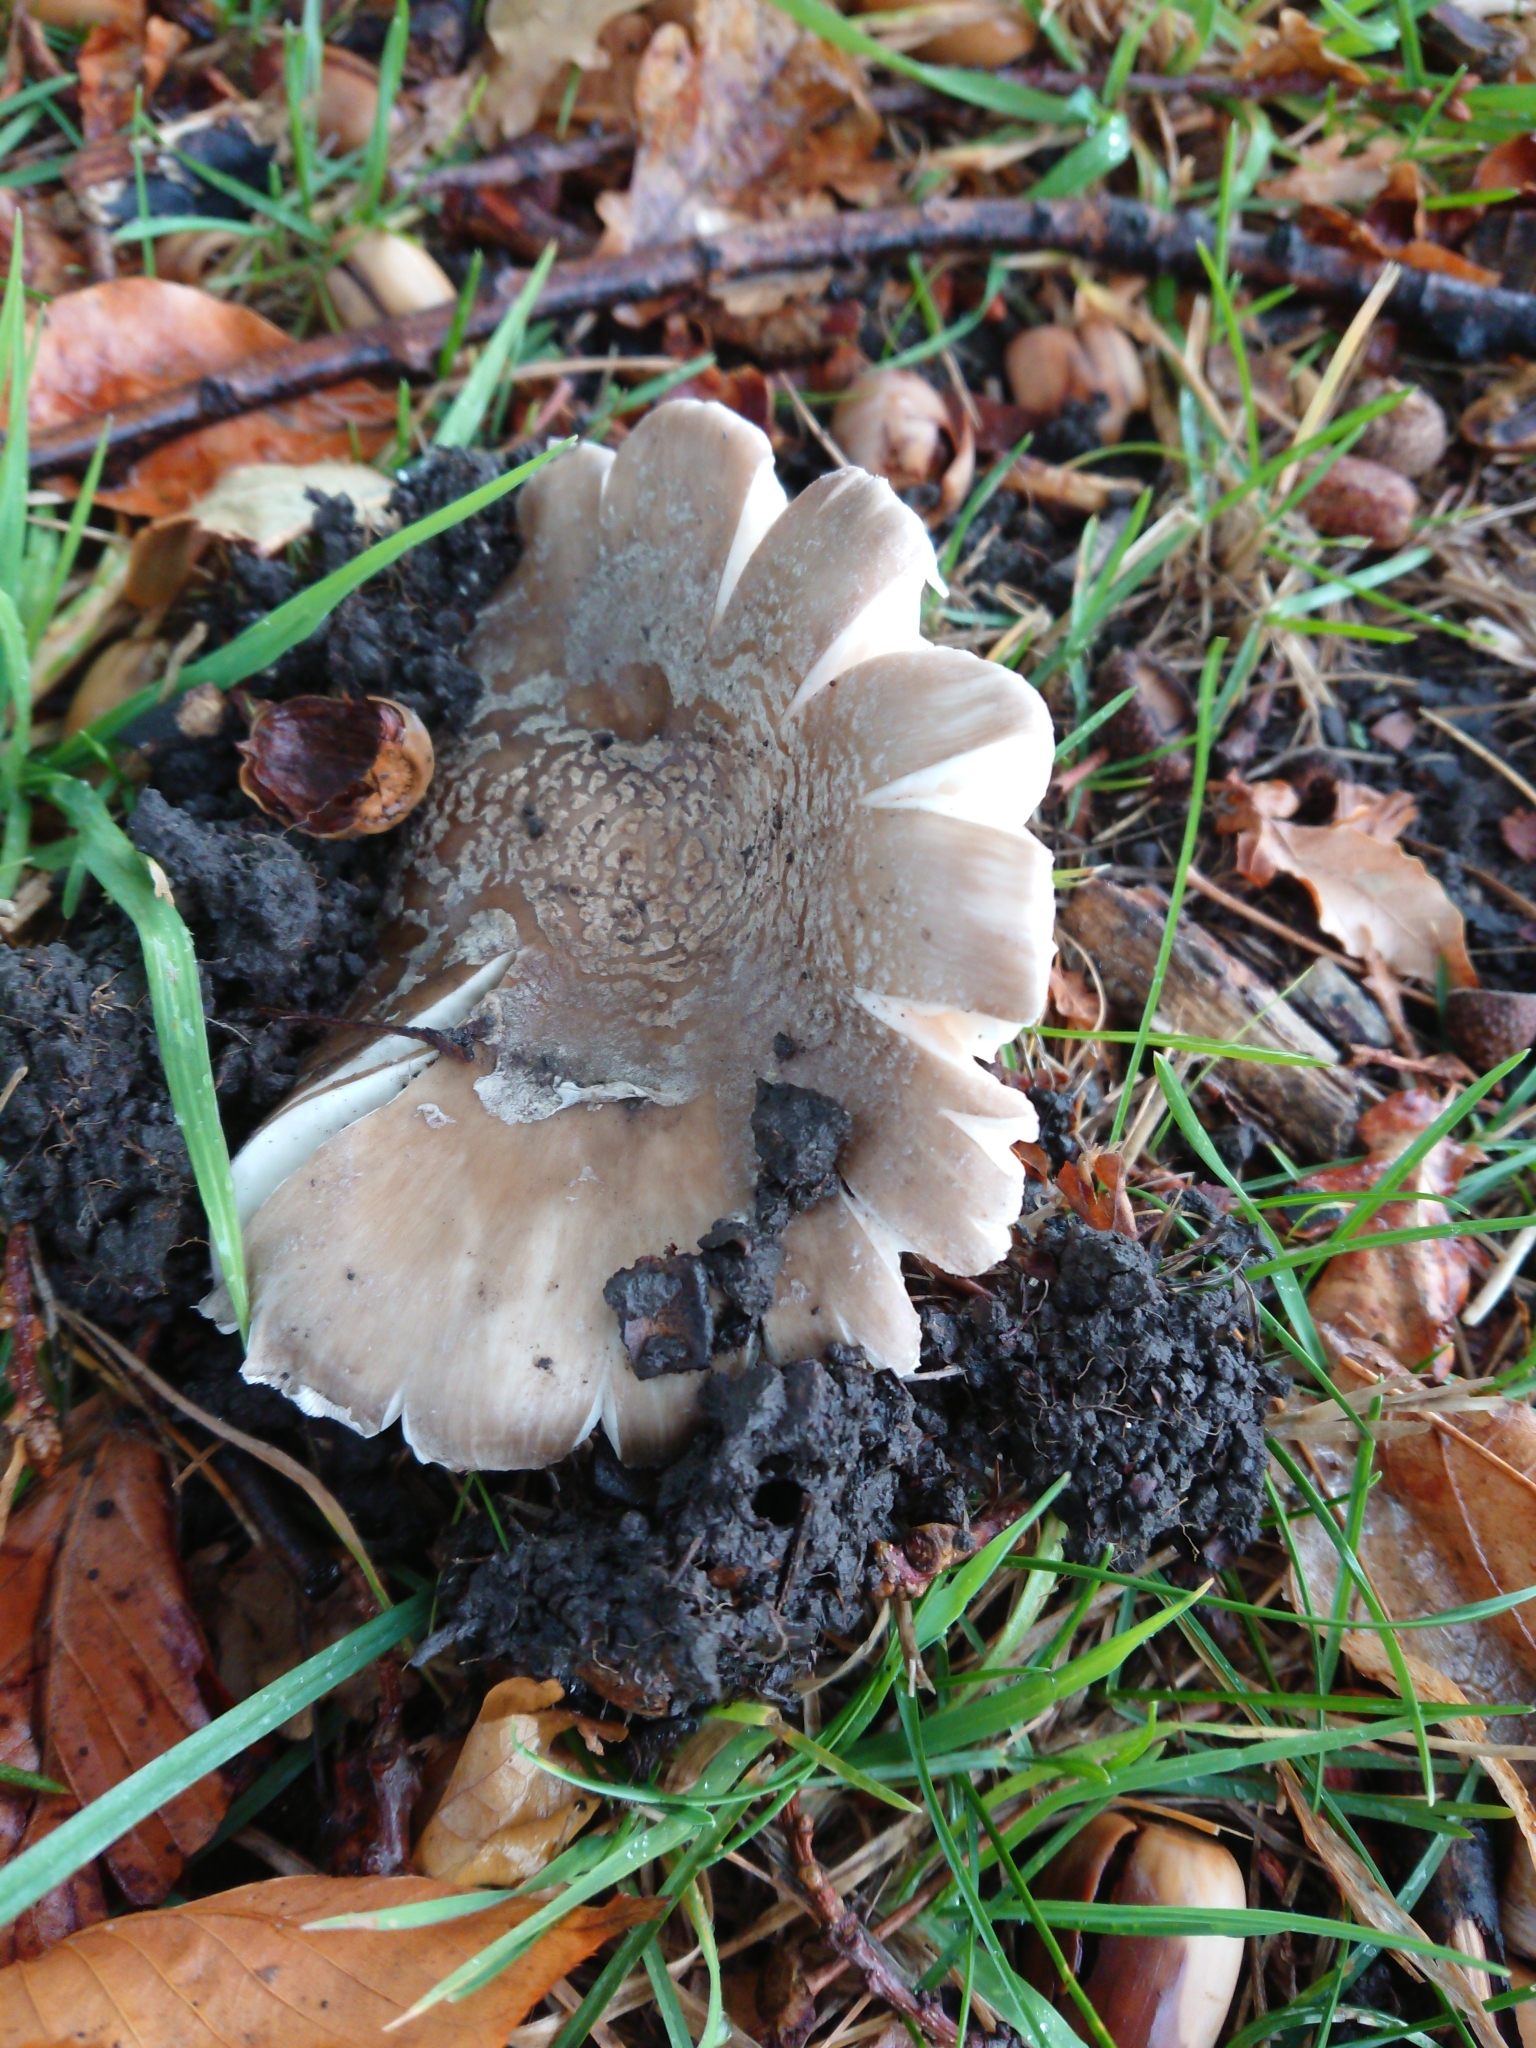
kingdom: Fungi
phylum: Basidiomycota
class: Agaricomycetes
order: Agaricales
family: Amanitaceae
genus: Amanita
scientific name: Amanita excelsa
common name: European false blusher
